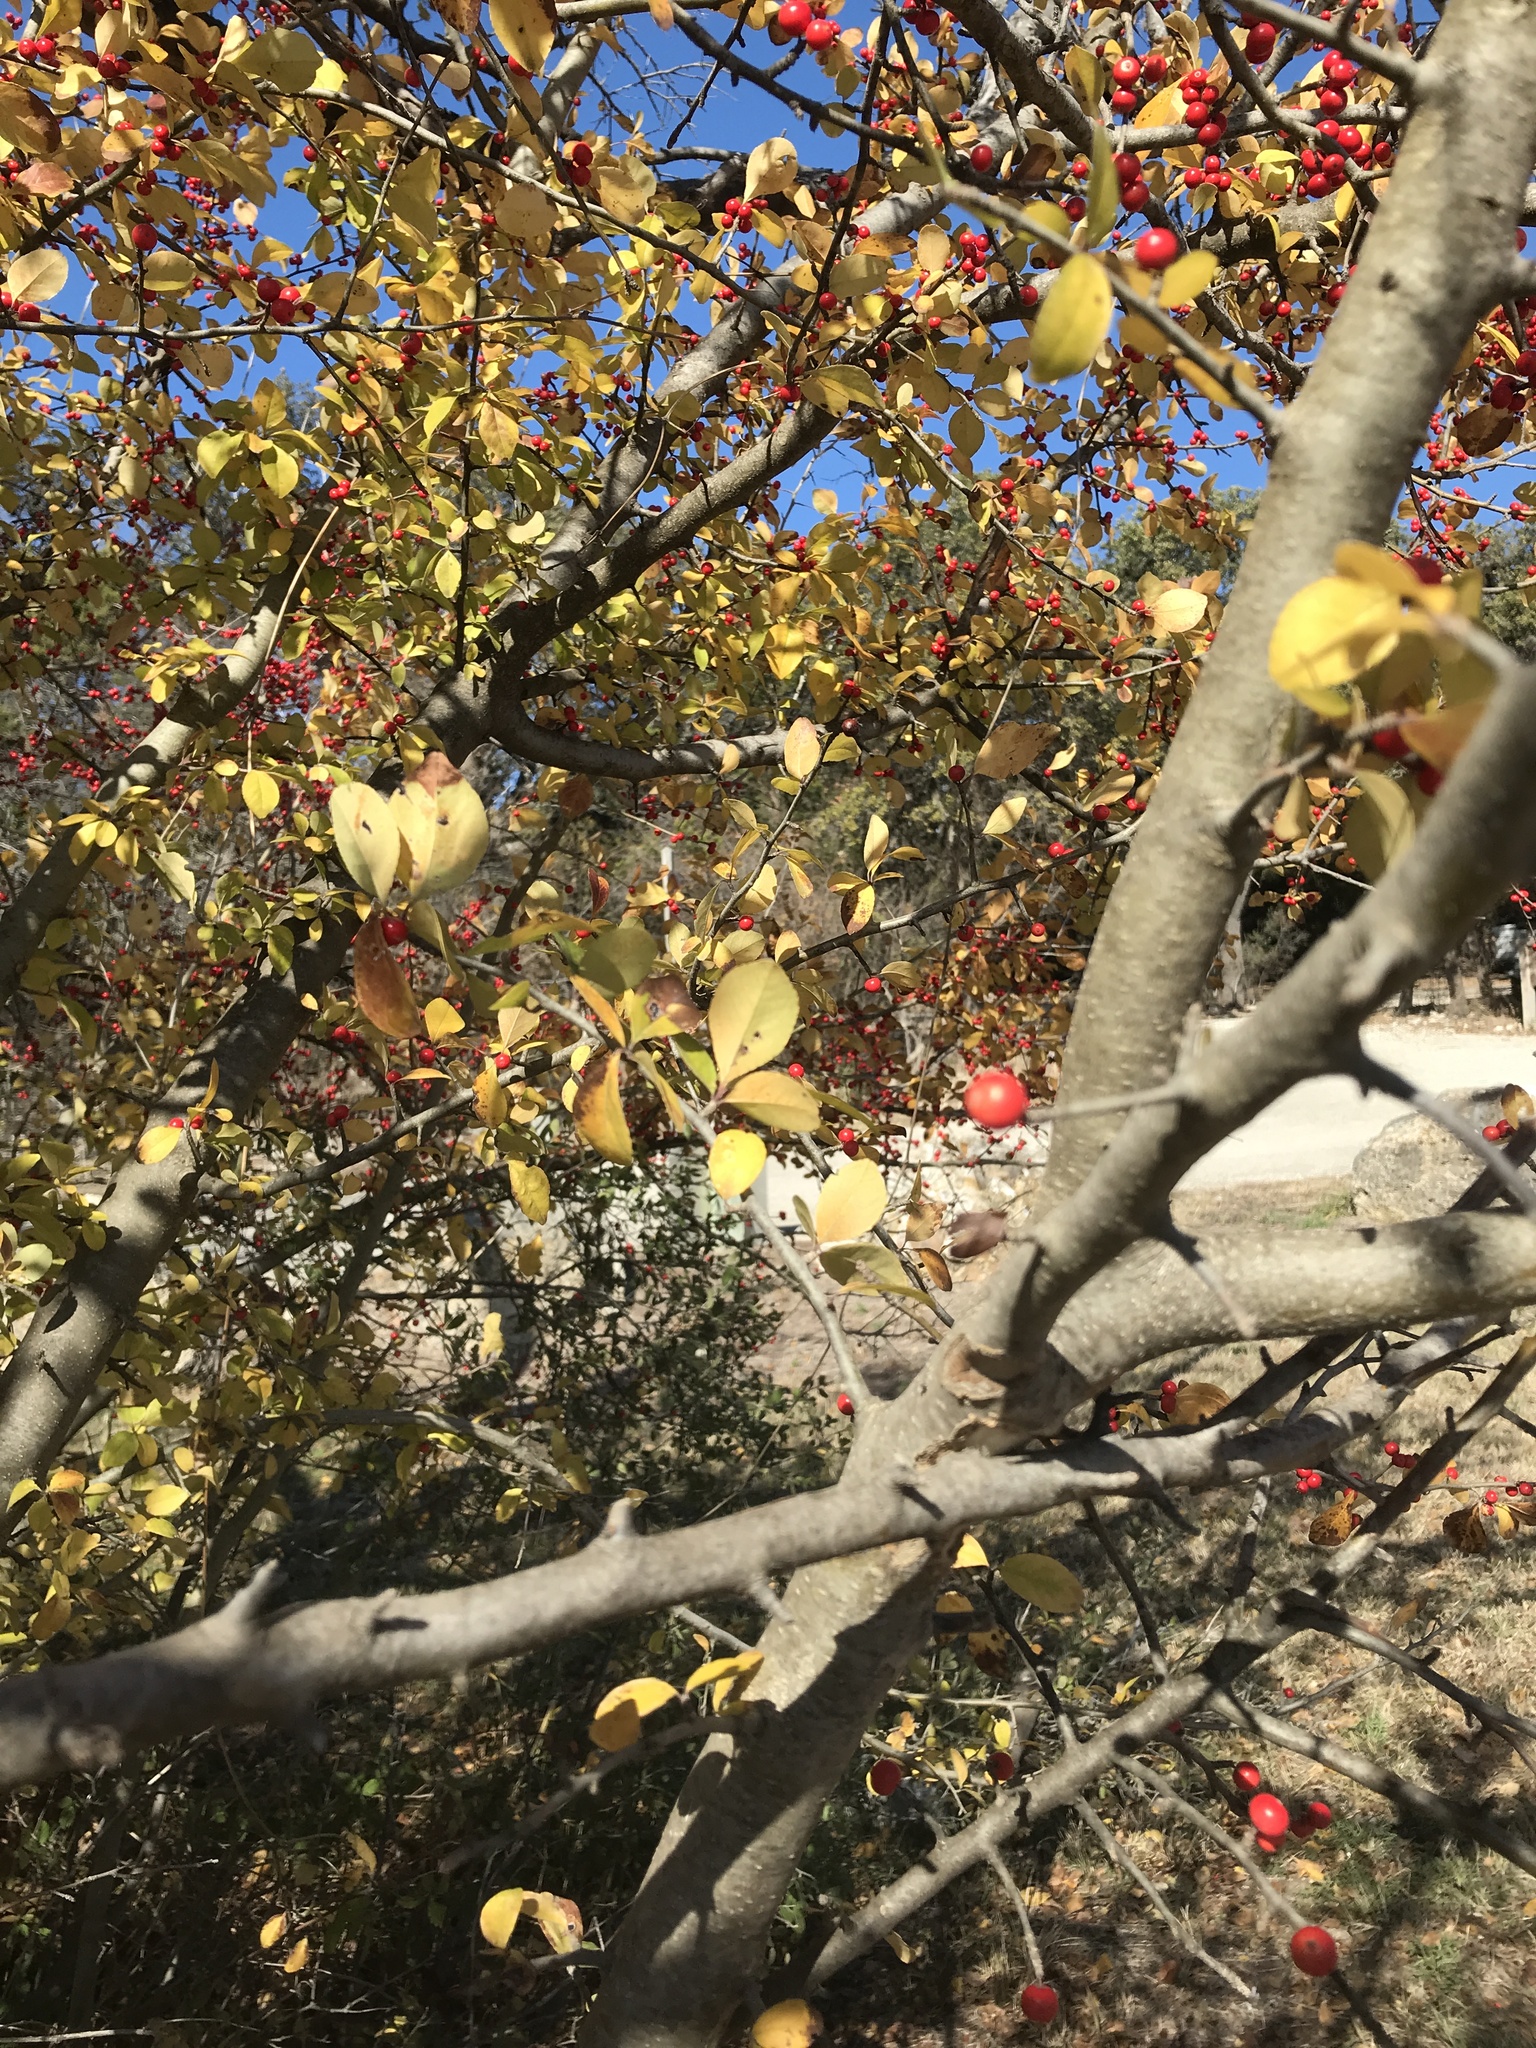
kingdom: Plantae
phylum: Tracheophyta
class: Magnoliopsida
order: Aquifoliales
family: Aquifoliaceae
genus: Ilex
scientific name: Ilex decidua
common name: Possum-haw
